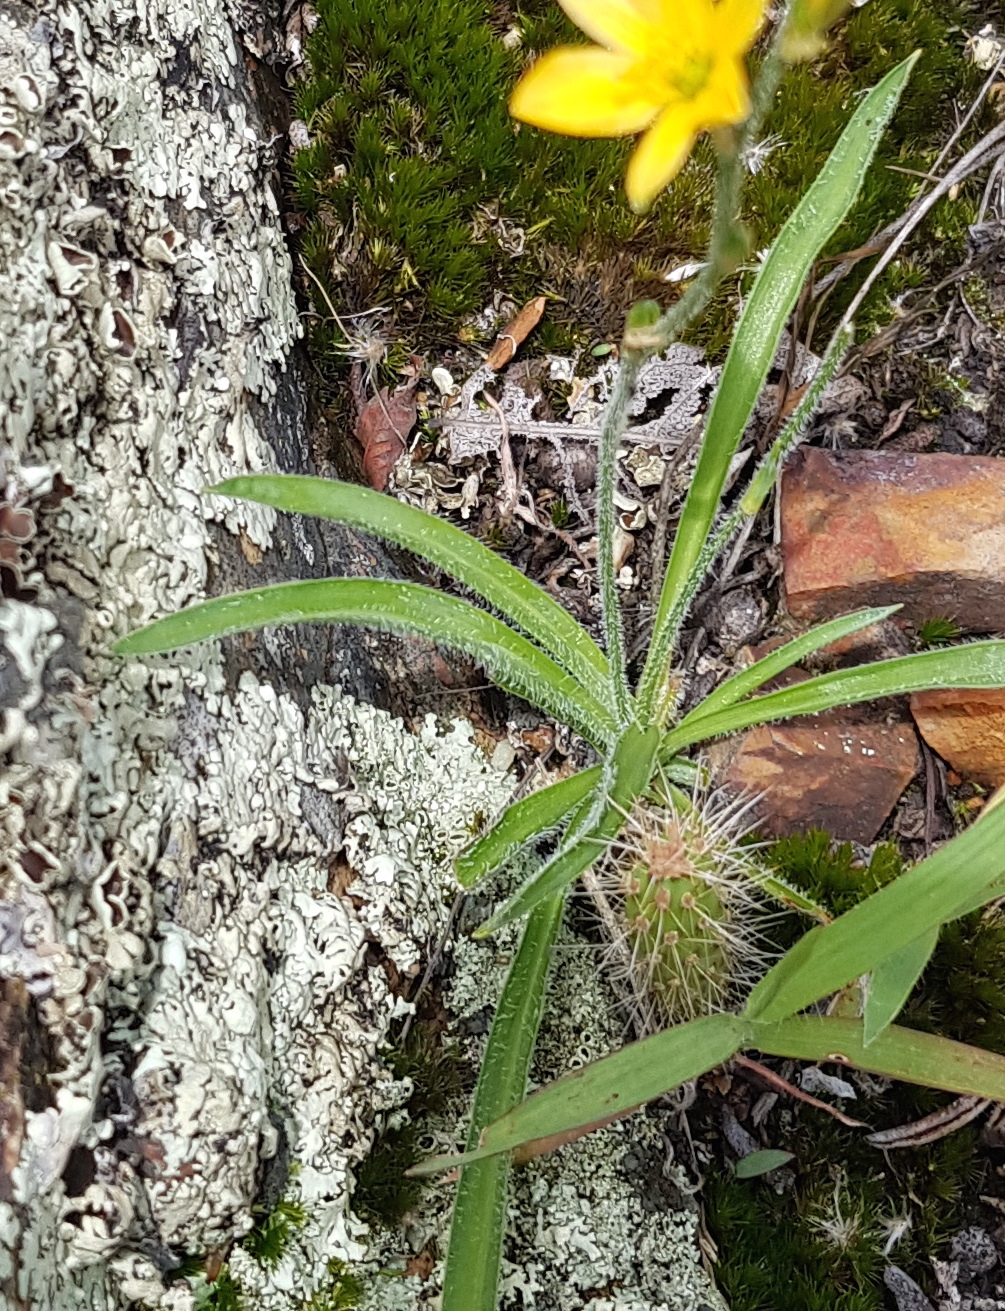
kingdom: Plantae
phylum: Tracheophyta
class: Liliopsida
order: Asparagales
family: Asparagaceae
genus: Echeandia
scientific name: Echeandia vestita
